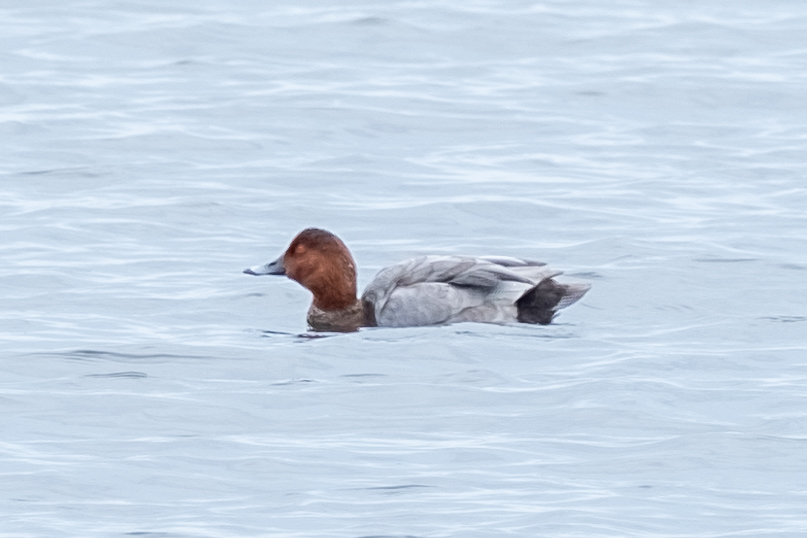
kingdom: Animalia
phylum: Chordata
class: Aves
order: Anseriformes
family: Anatidae
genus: Aythya
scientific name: Aythya ferina
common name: Common pochard
